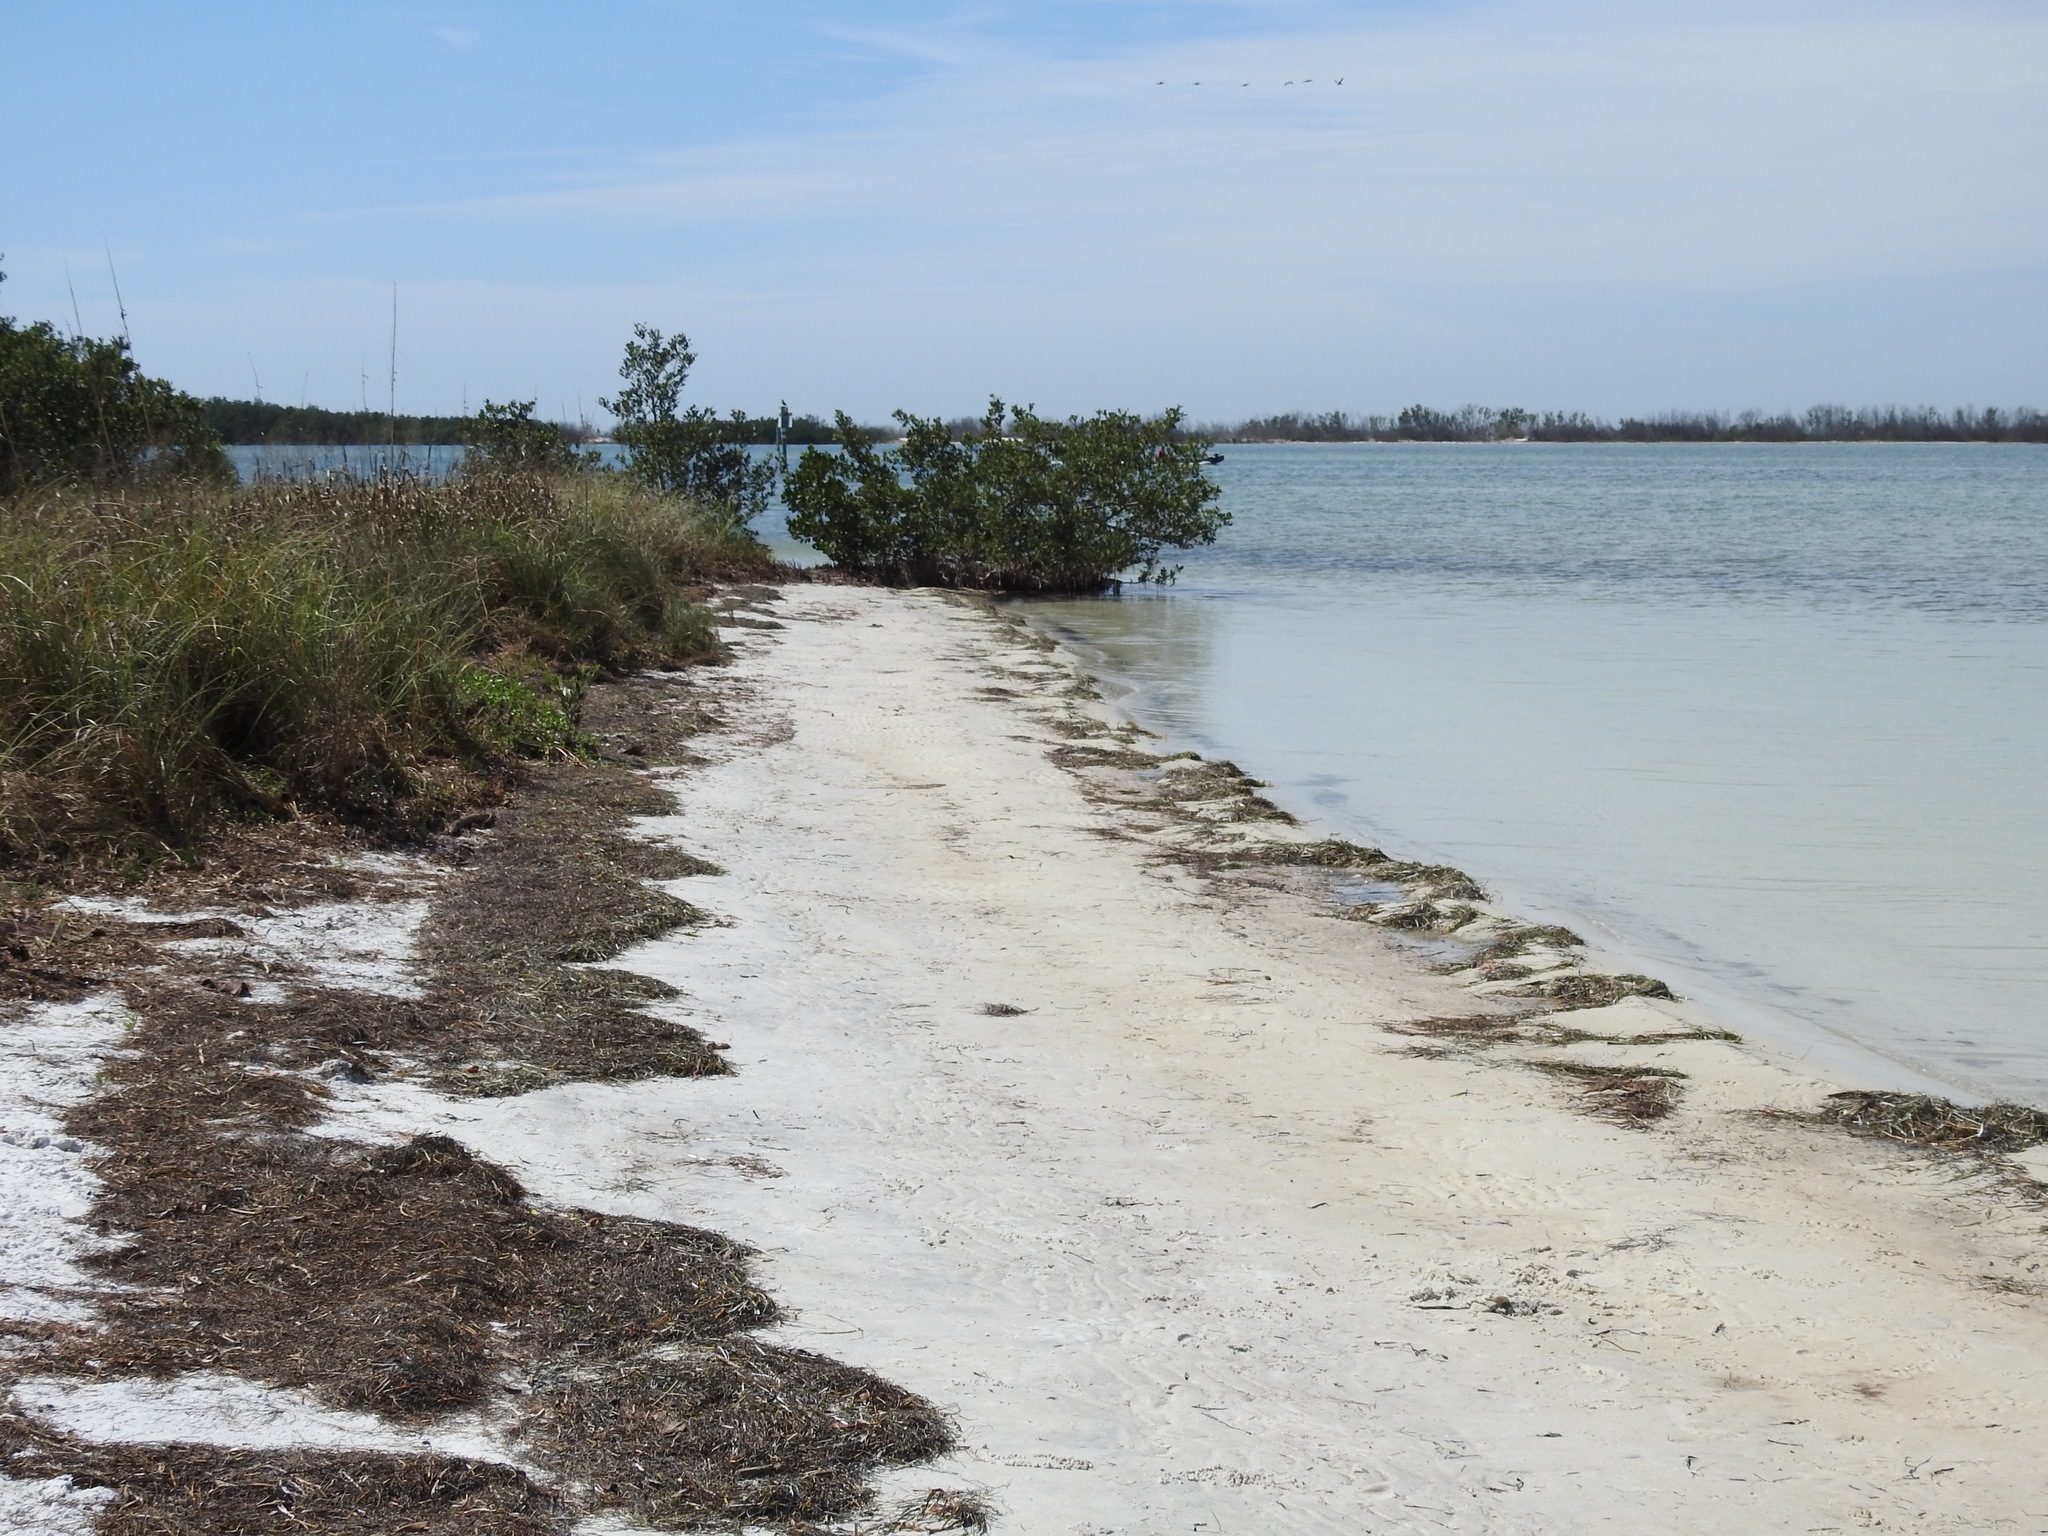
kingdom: Animalia
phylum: Arthropoda
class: Insecta
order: Coleoptera
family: Carabidae
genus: Cicindela
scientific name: Cicindela trifasciata
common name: Mudflat tiger beetle
